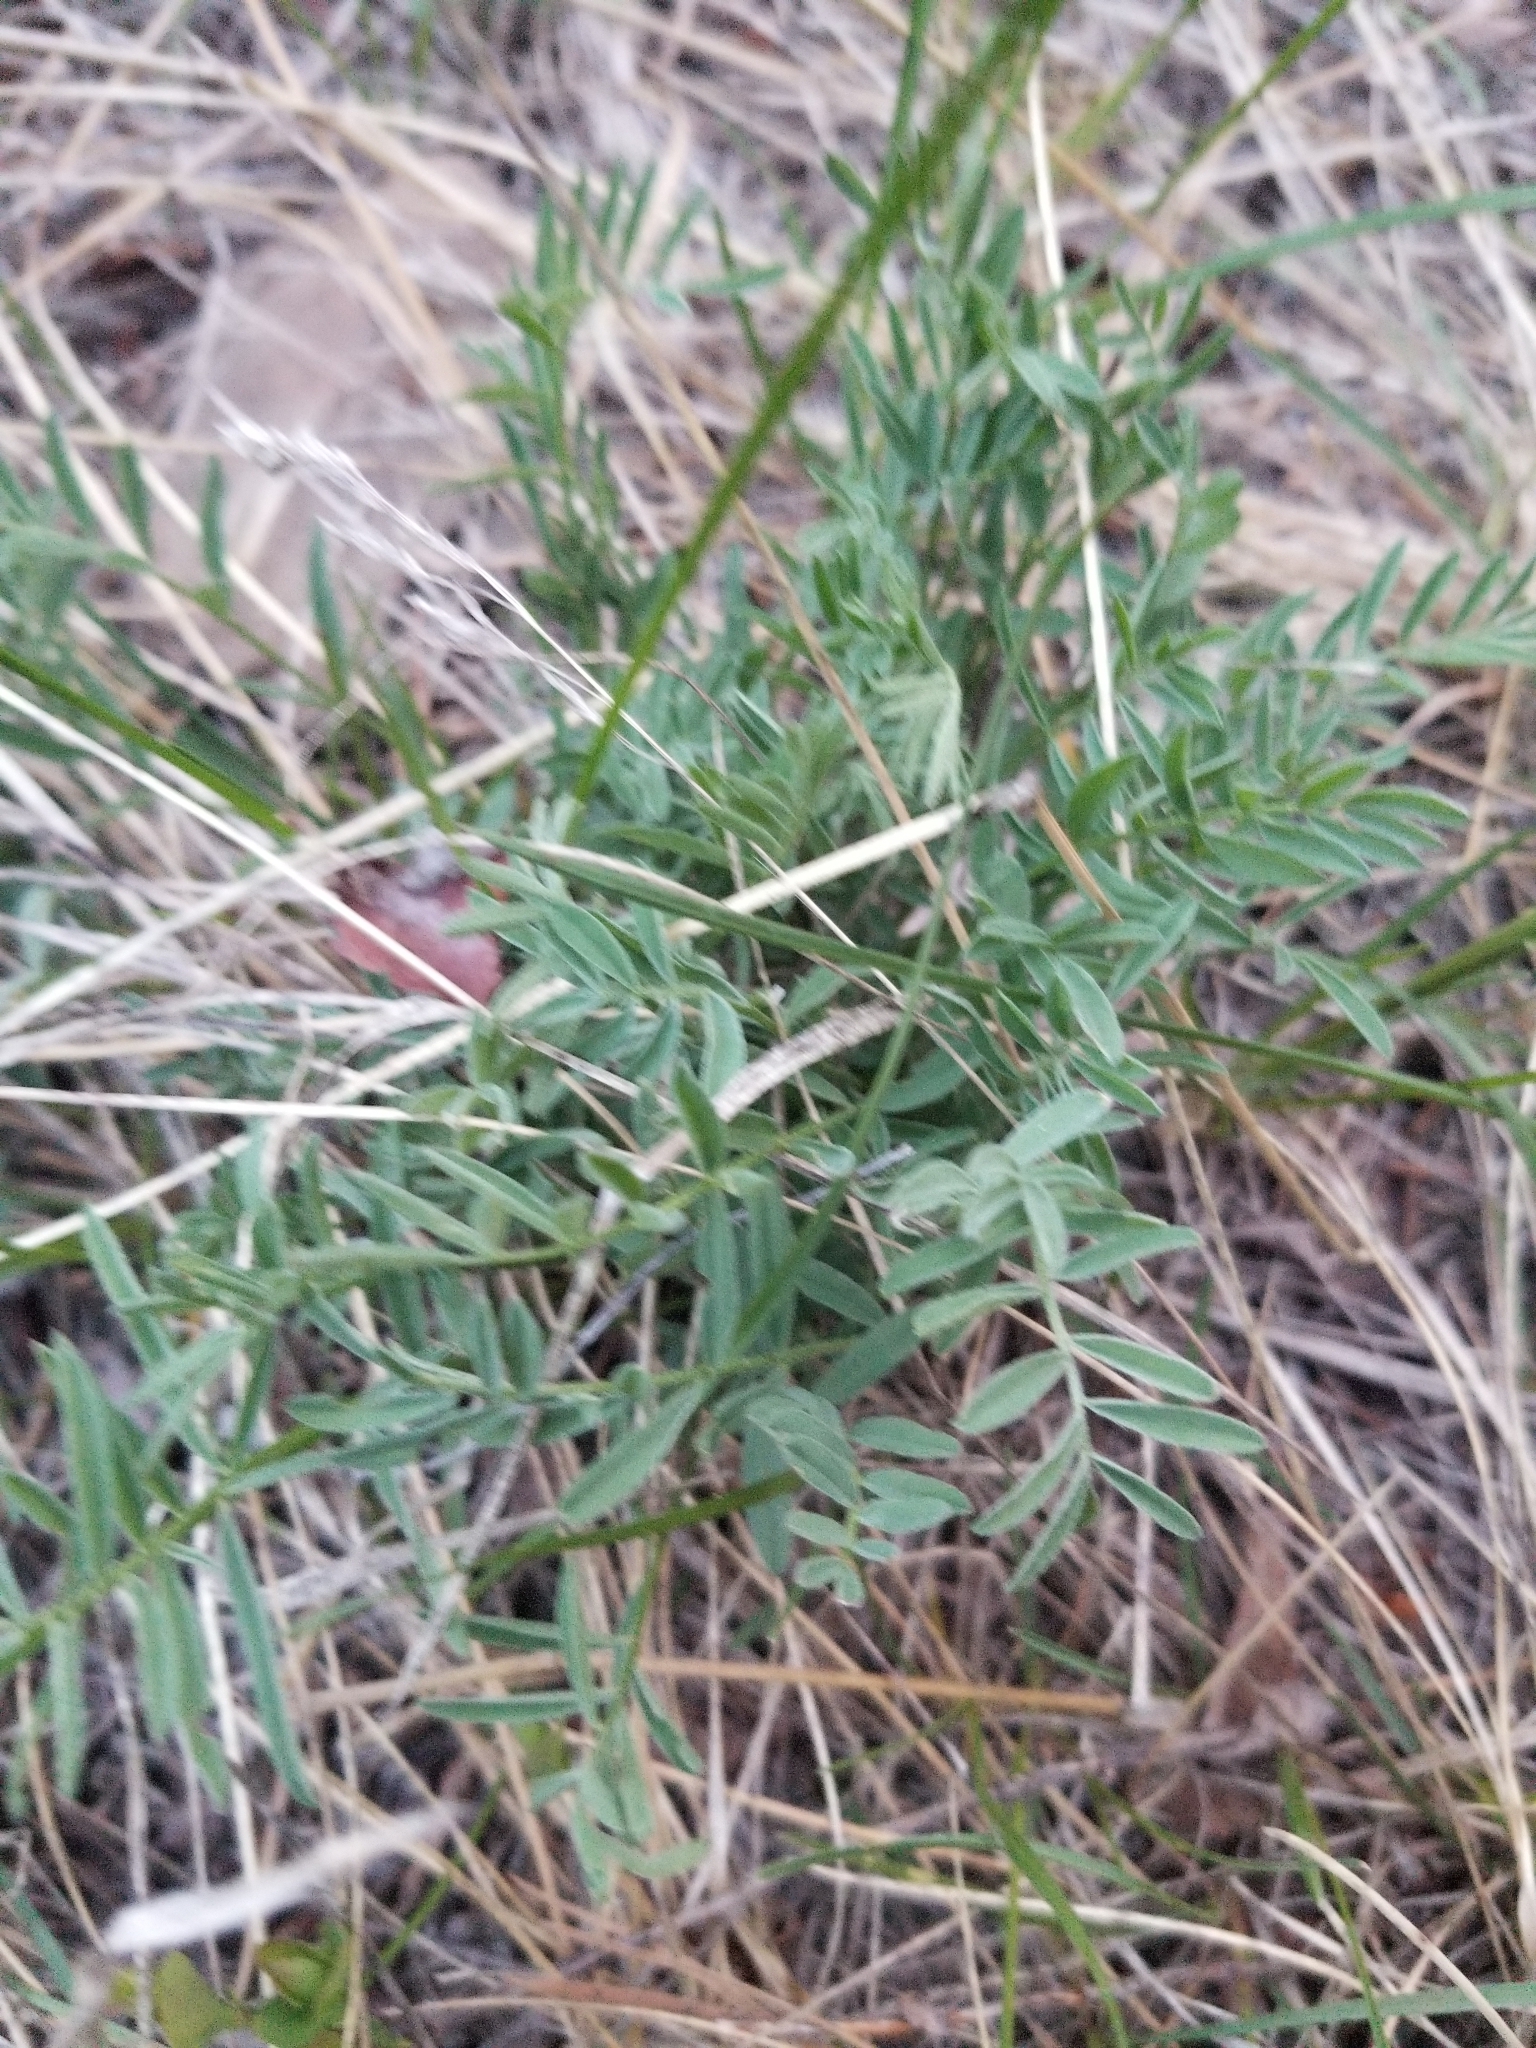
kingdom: Plantae
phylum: Tracheophyta
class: Magnoliopsida
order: Fabales
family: Fabaceae
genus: Astragalus
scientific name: Astragalus miser
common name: Timber milkvetch
